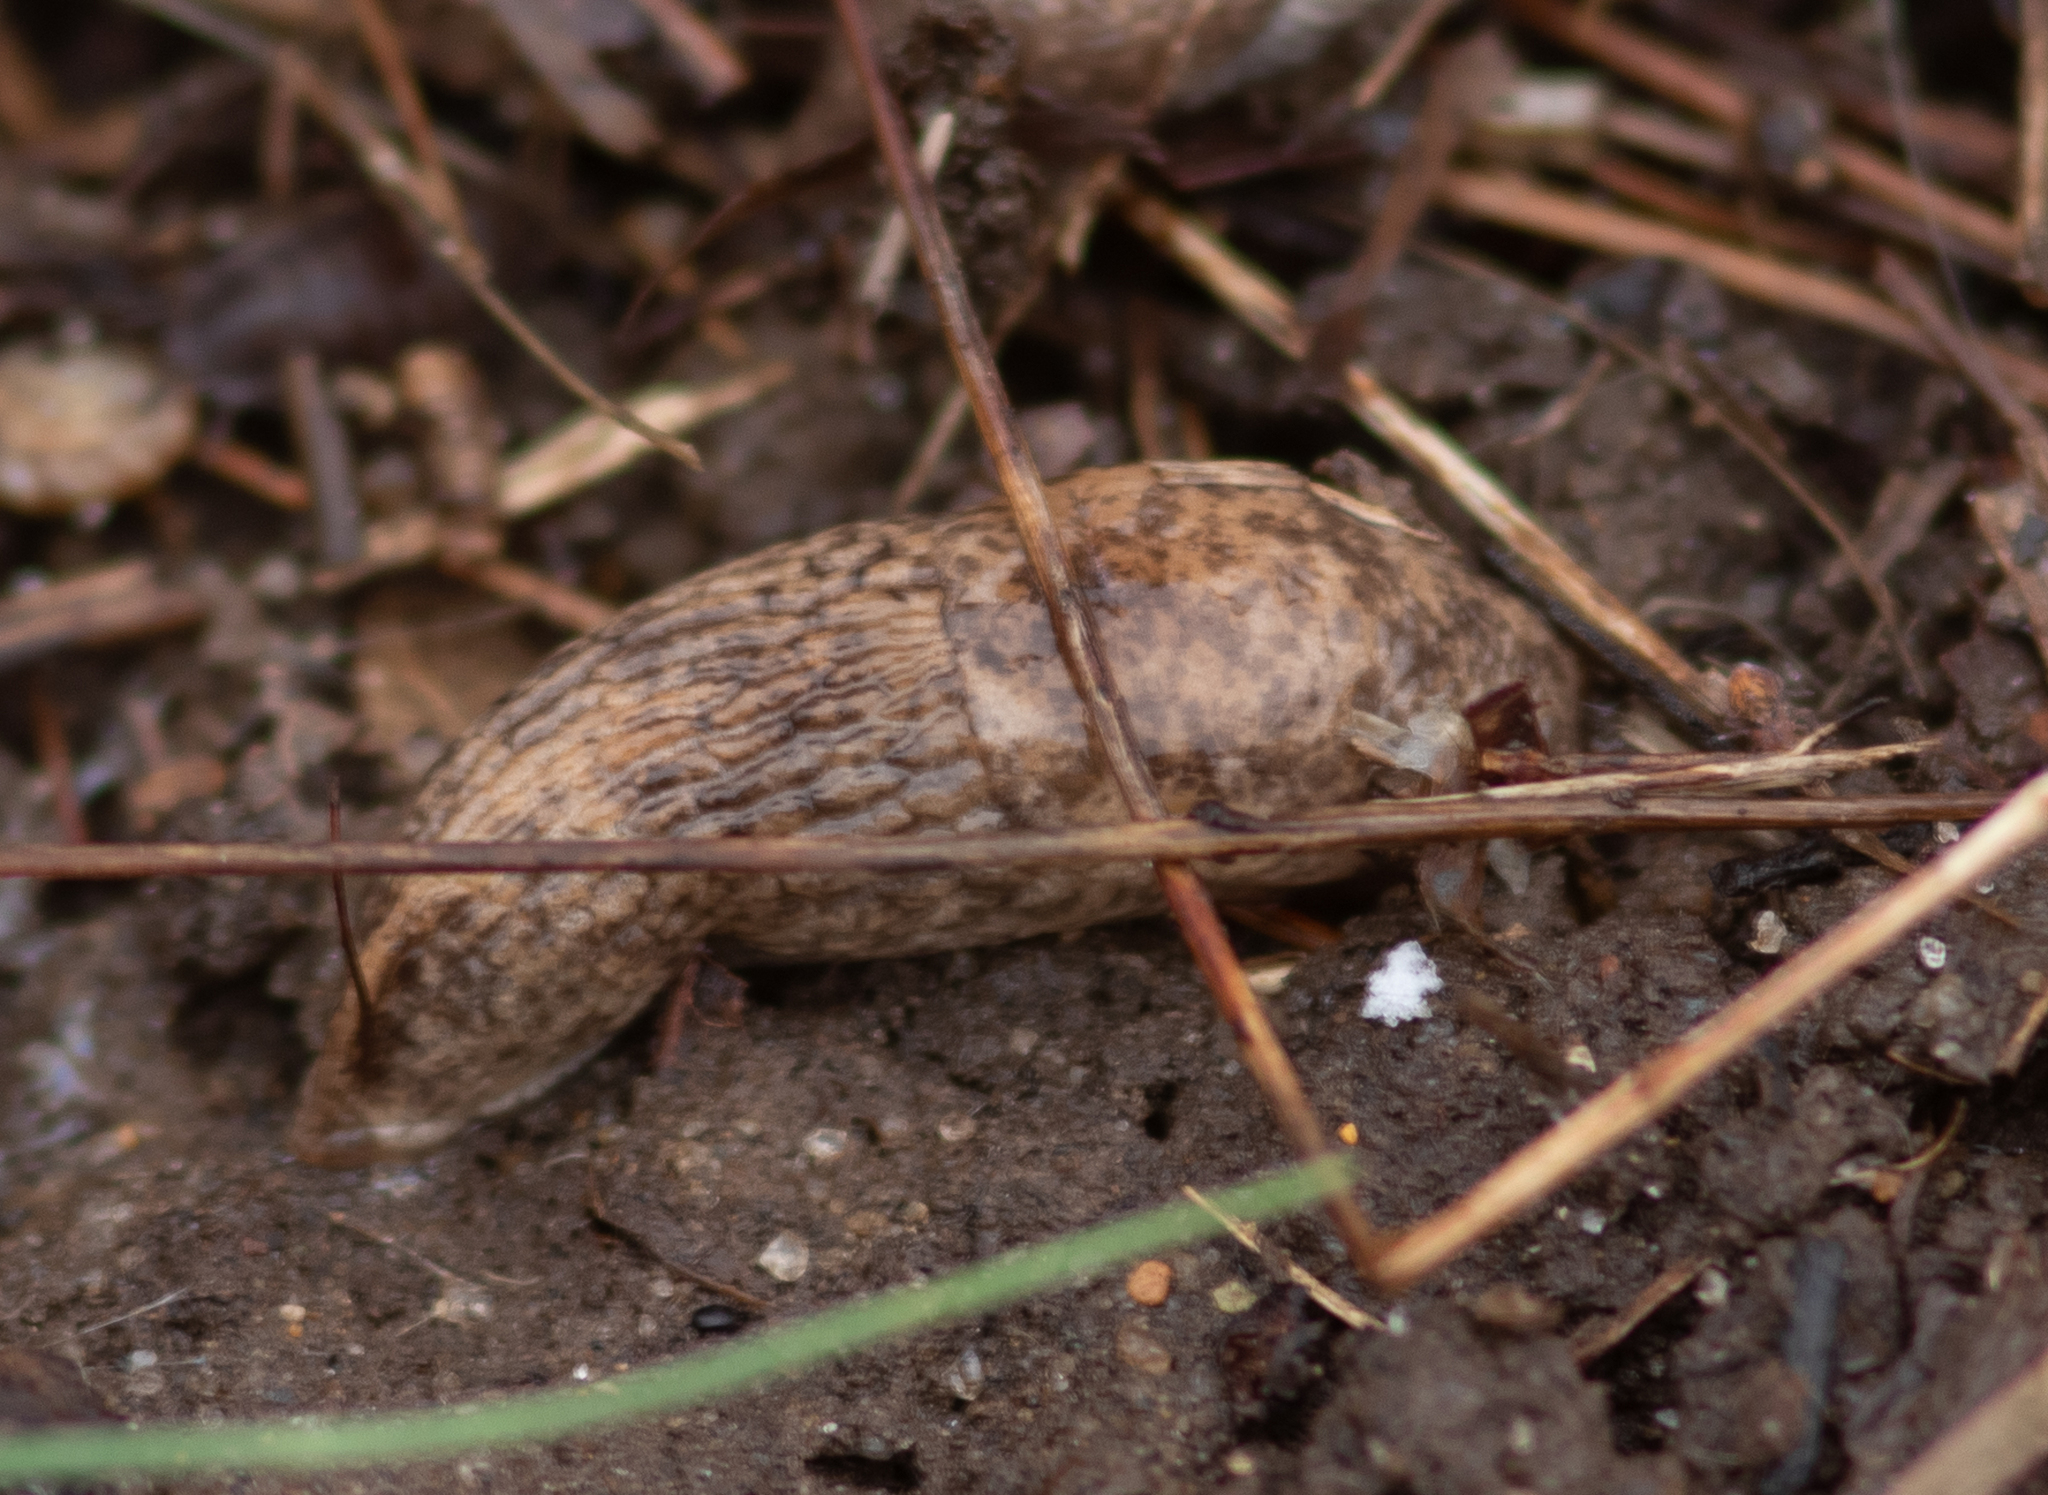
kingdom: Animalia
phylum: Mollusca
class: Gastropoda
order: Stylommatophora
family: Agriolimacidae
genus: Deroceras
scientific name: Deroceras reticulatum
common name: Gray field slug
